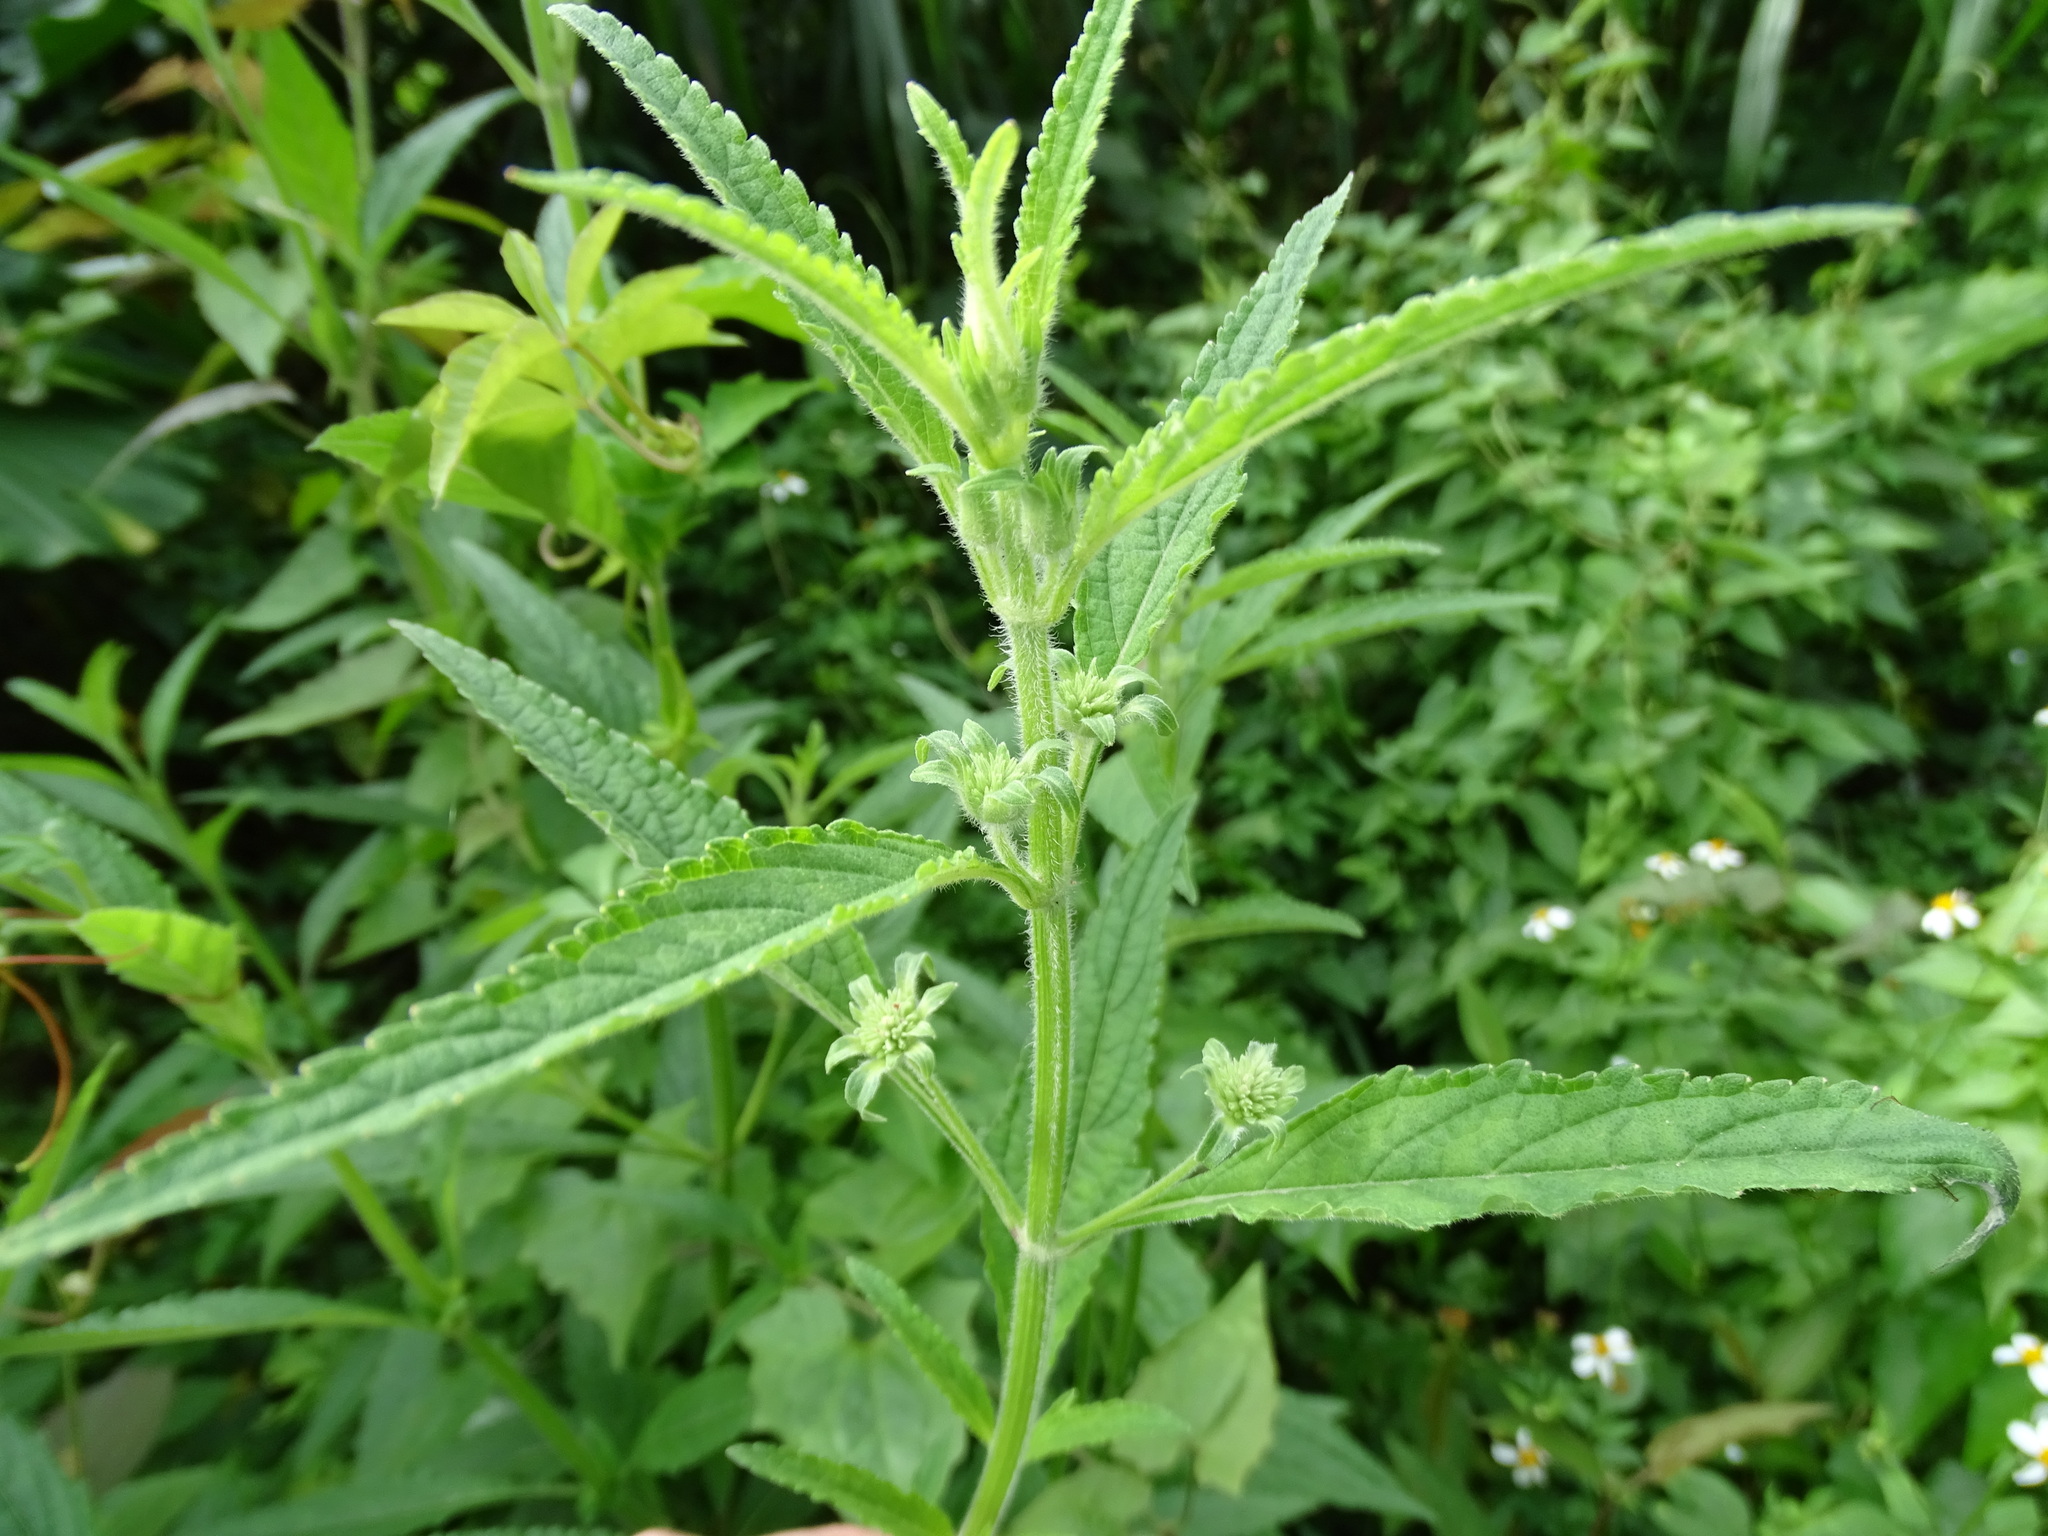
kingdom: Plantae
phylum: Tracheophyta
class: Magnoliopsida
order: Lamiales
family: Lamiaceae
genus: Hyptis
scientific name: Hyptis capitata
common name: False ironwort
